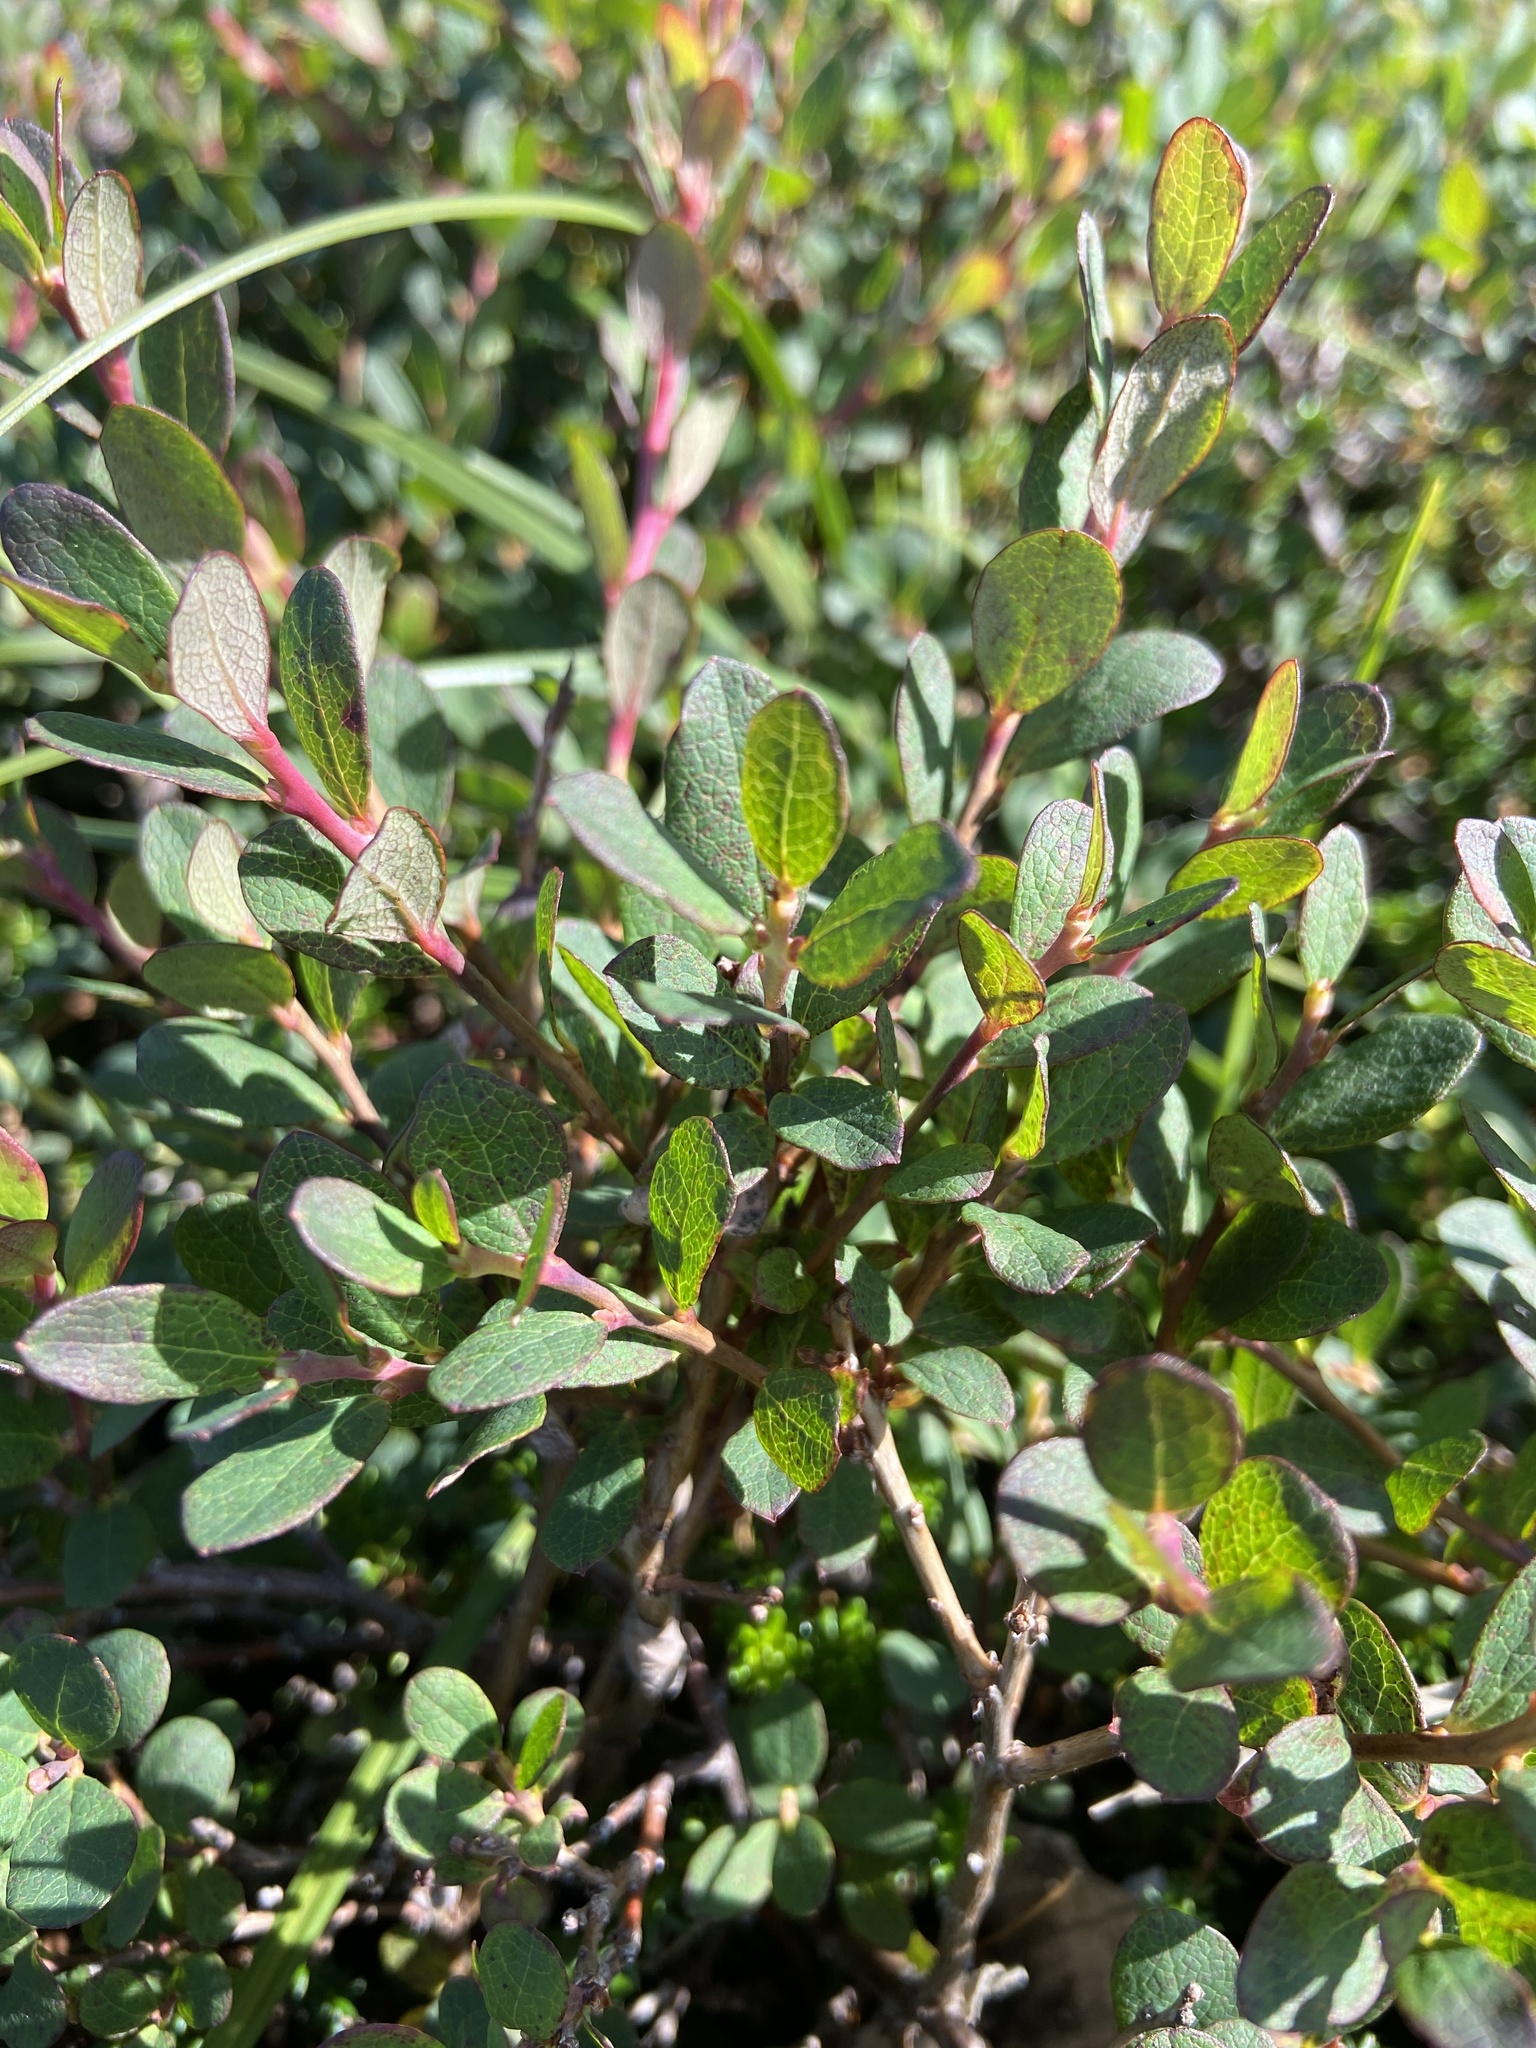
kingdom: Plantae
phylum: Tracheophyta
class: Magnoliopsida
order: Ericales
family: Ericaceae
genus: Vaccinium
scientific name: Vaccinium uliginosum
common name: Bog bilberry
